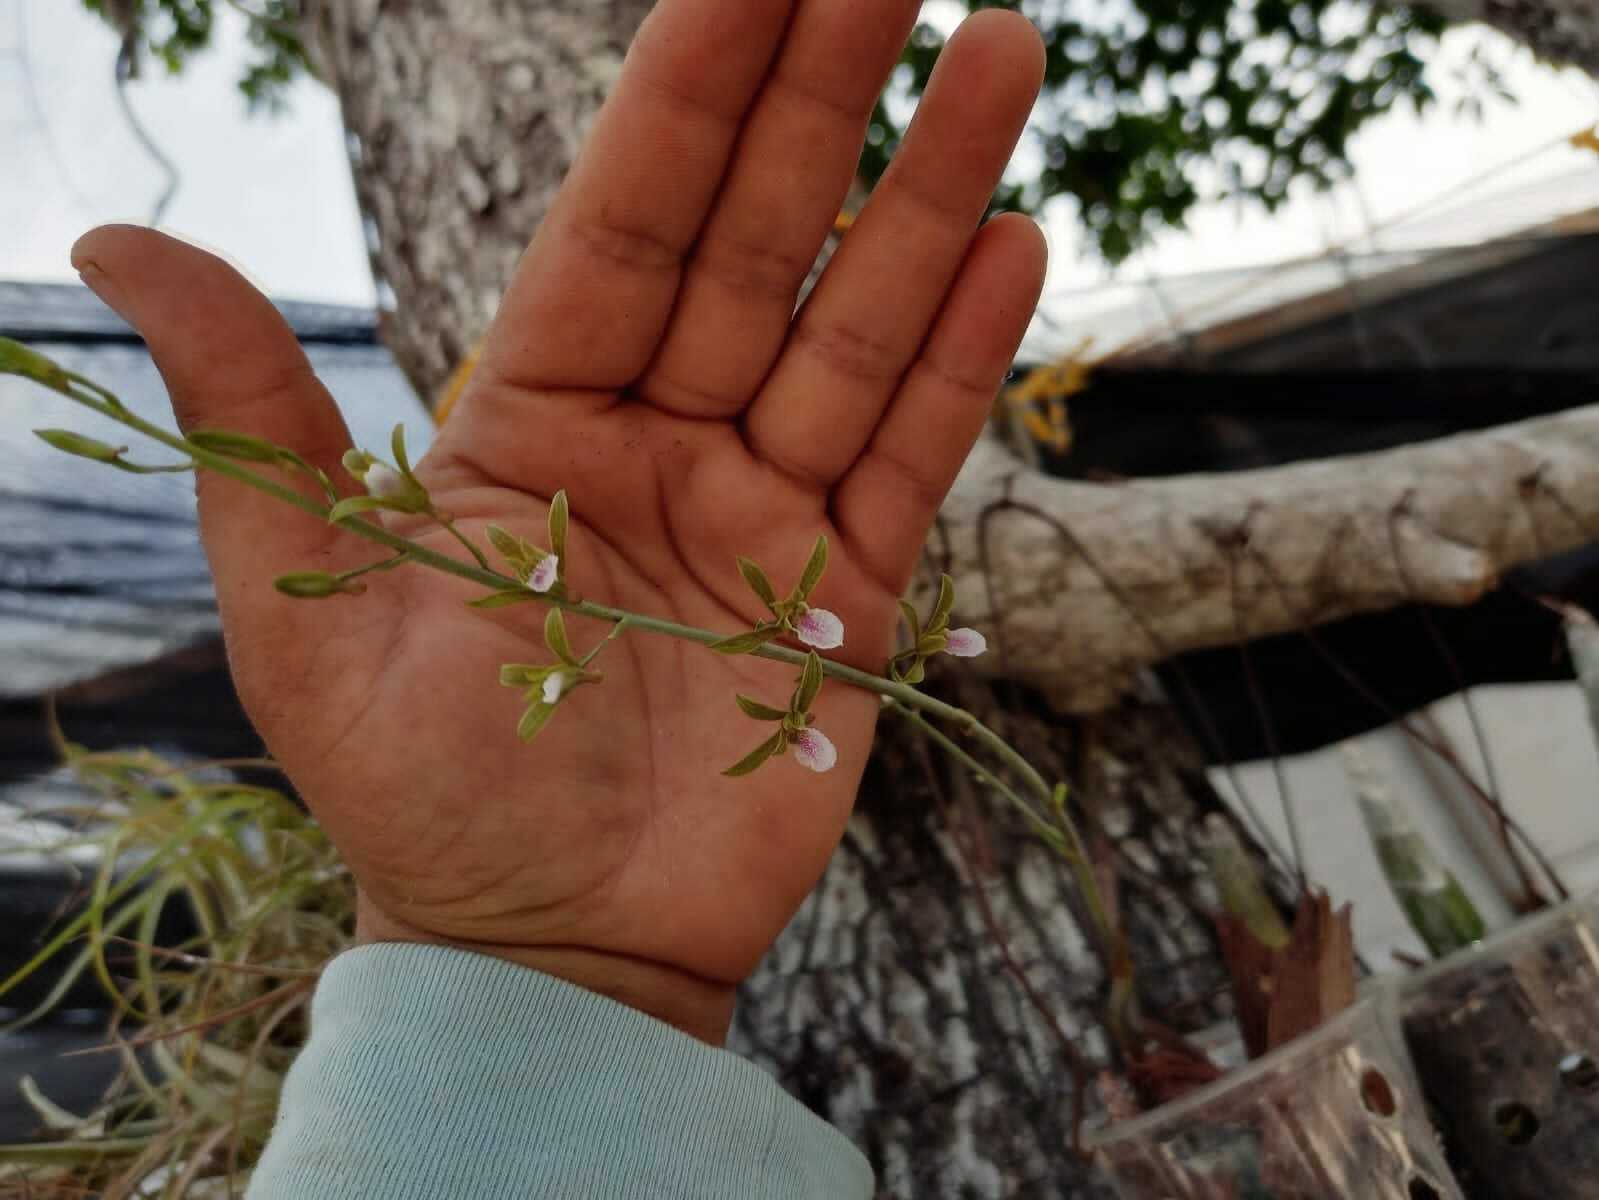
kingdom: Plantae
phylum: Tracheophyta
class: Liliopsida
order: Asparagales
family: Orchidaceae
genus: Eulophia
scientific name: Eulophia graminea
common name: Orchid
